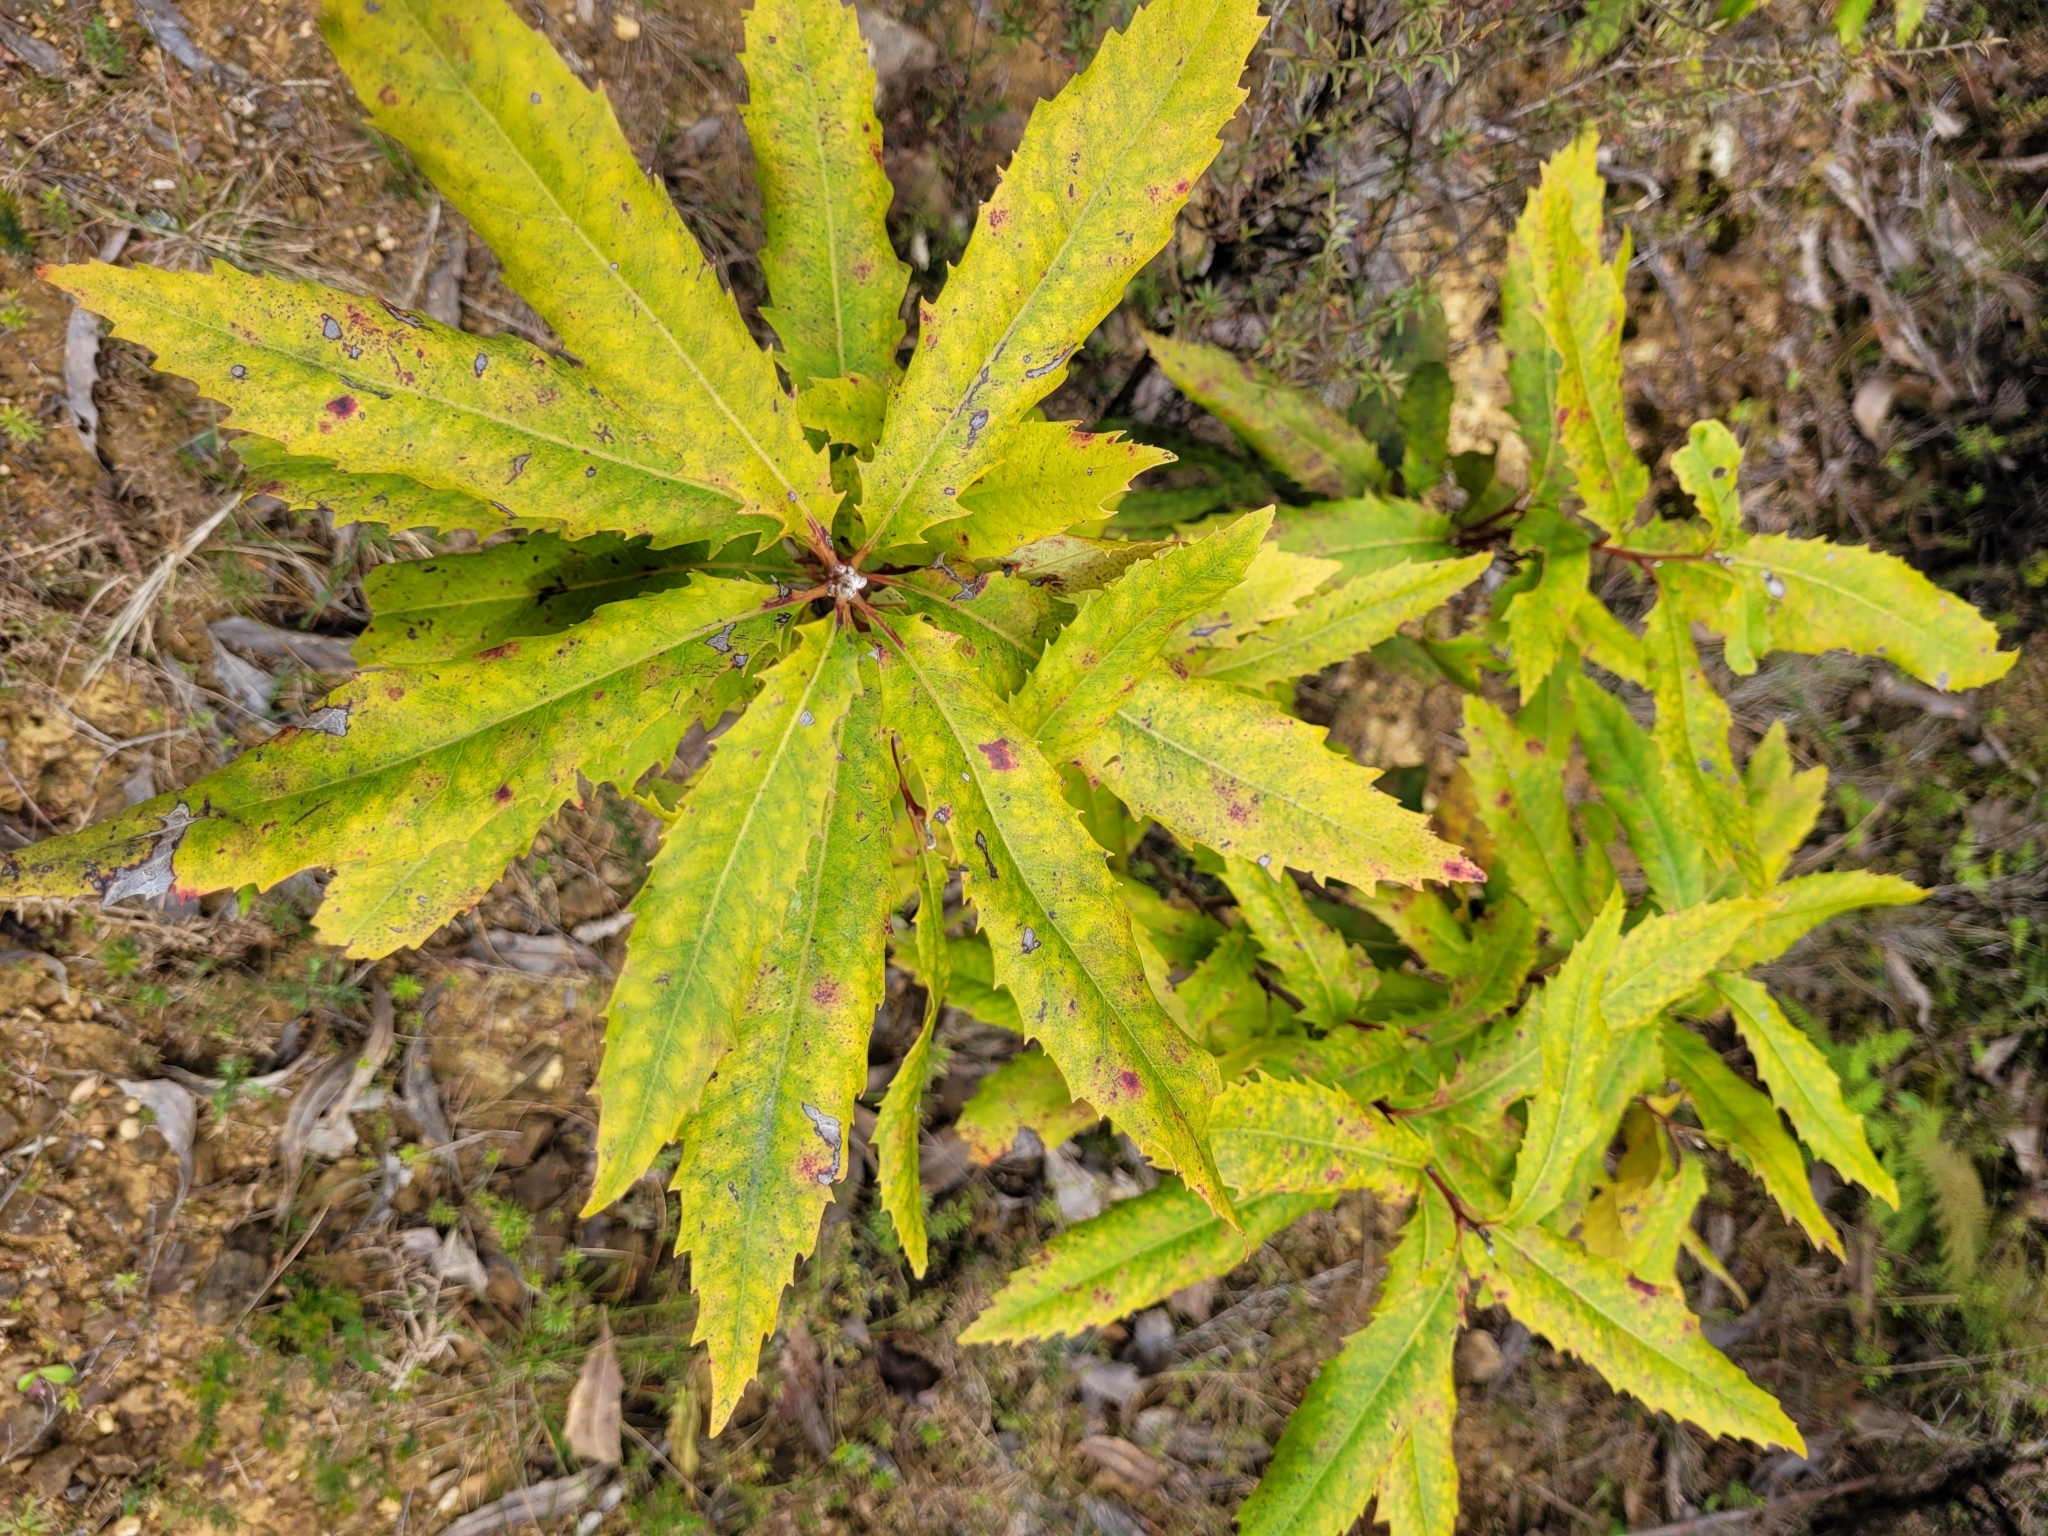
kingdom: Plantae
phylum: Tracheophyta
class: Magnoliopsida
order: Proteales
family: Proteaceae
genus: Lomatia
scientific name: Lomatia fraseri
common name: Forest lomatia
